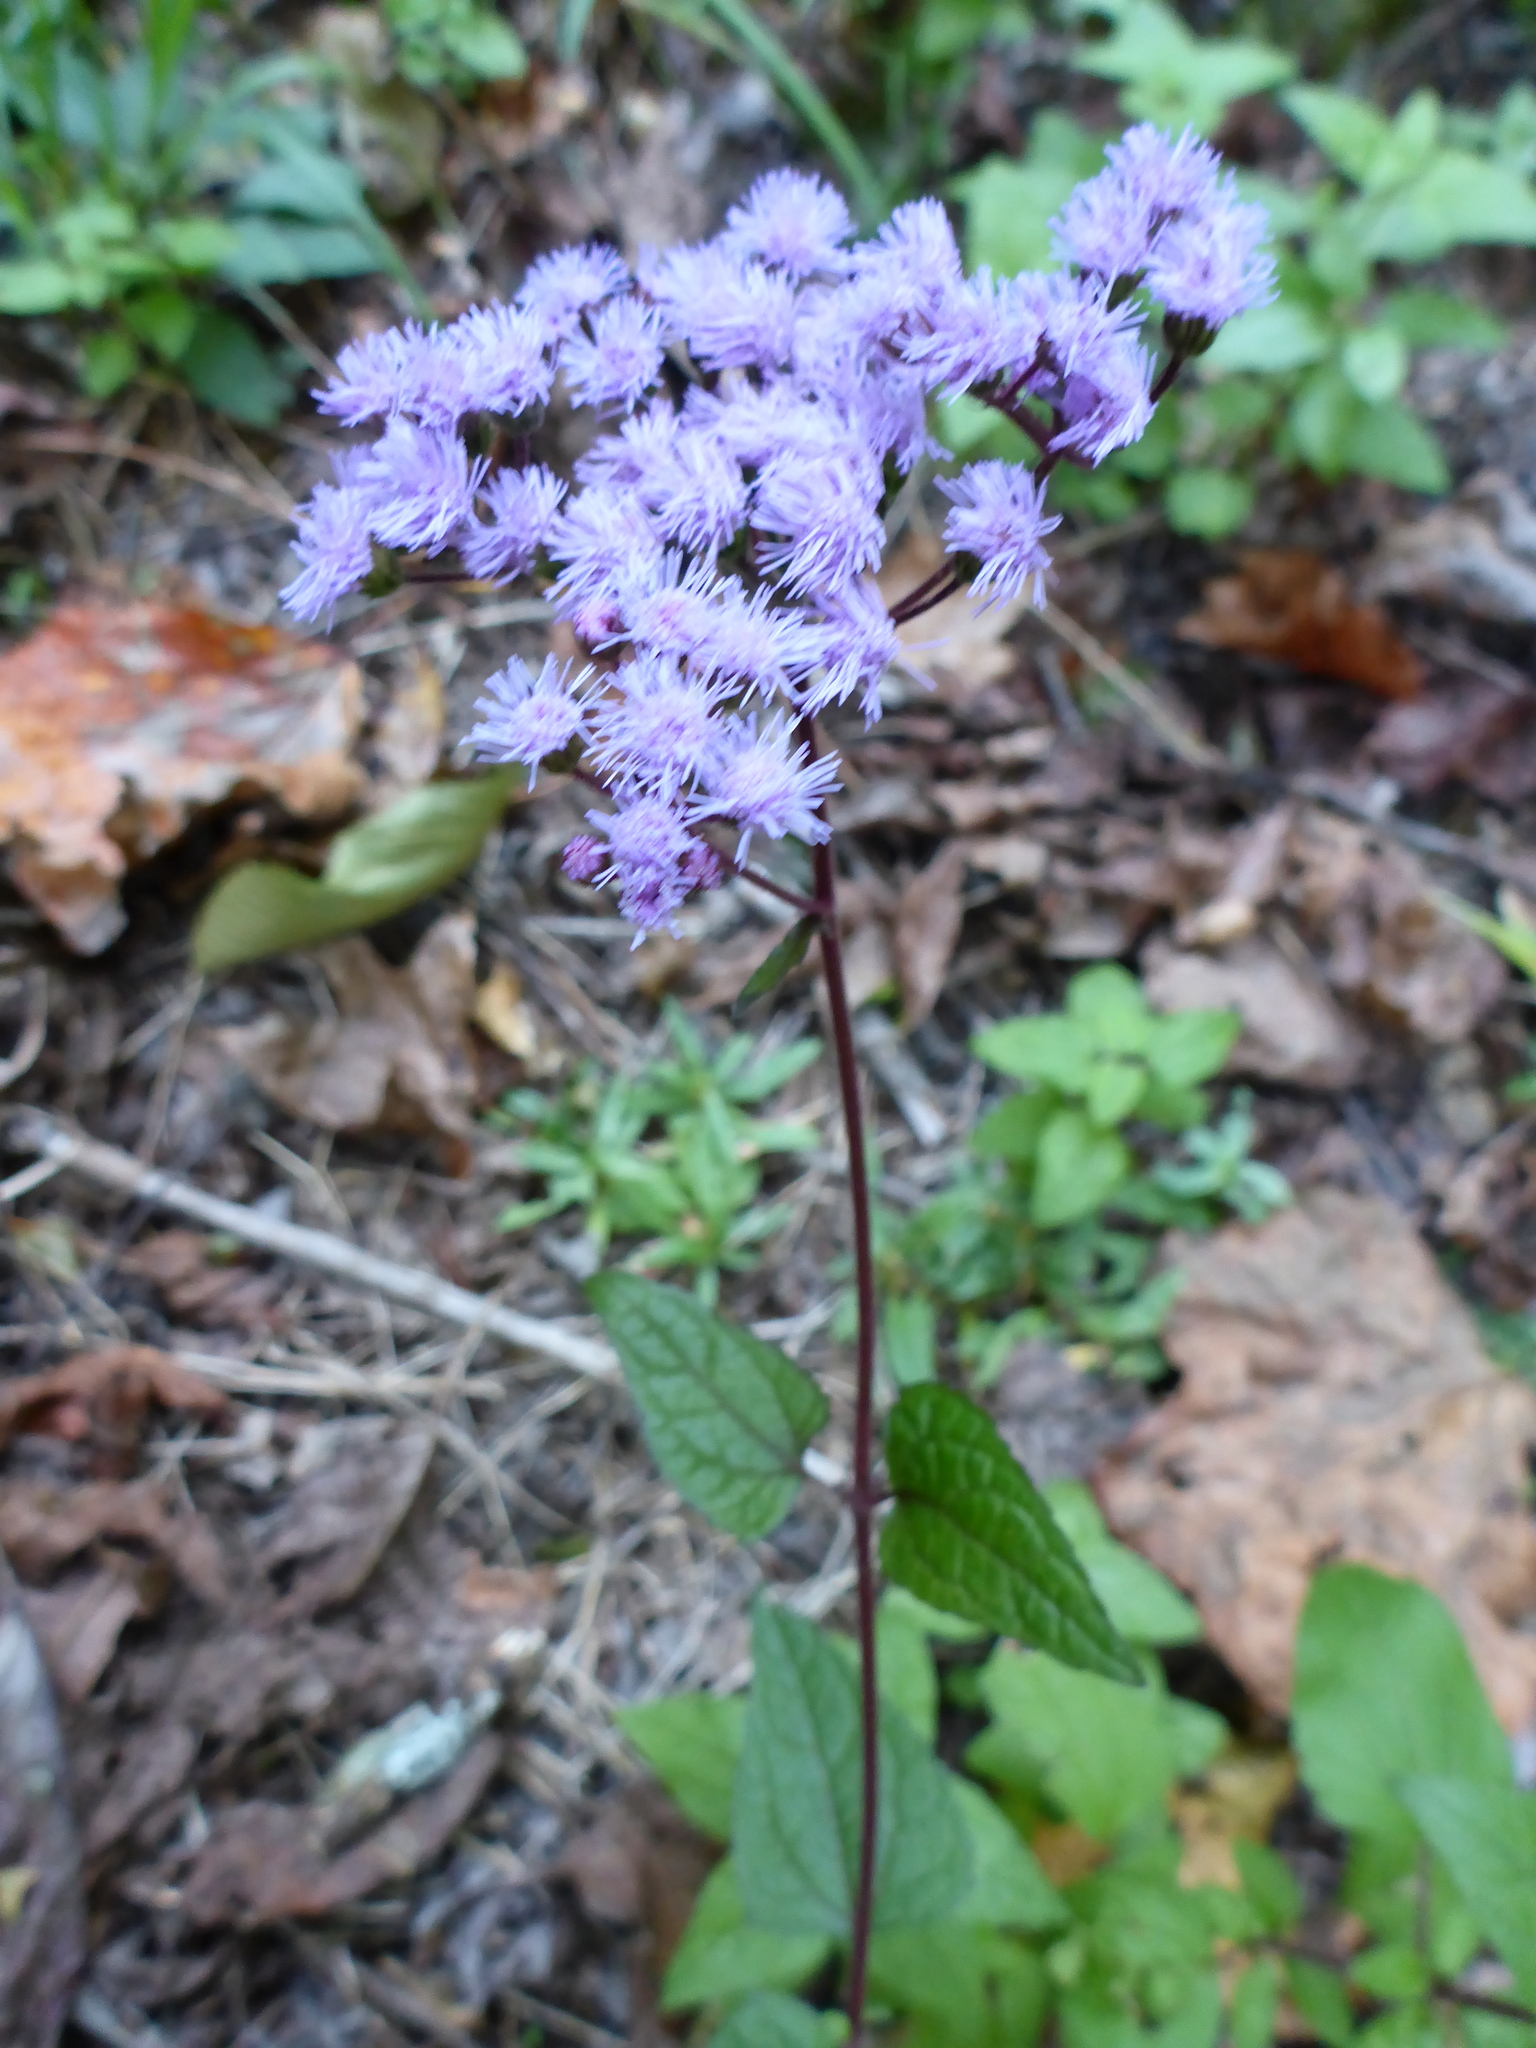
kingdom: Plantae
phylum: Tracheophyta
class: Magnoliopsida
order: Asterales
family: Asteraceae
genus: Conoclinium
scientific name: Conoclinium coelestinum
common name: Blue mistflower
